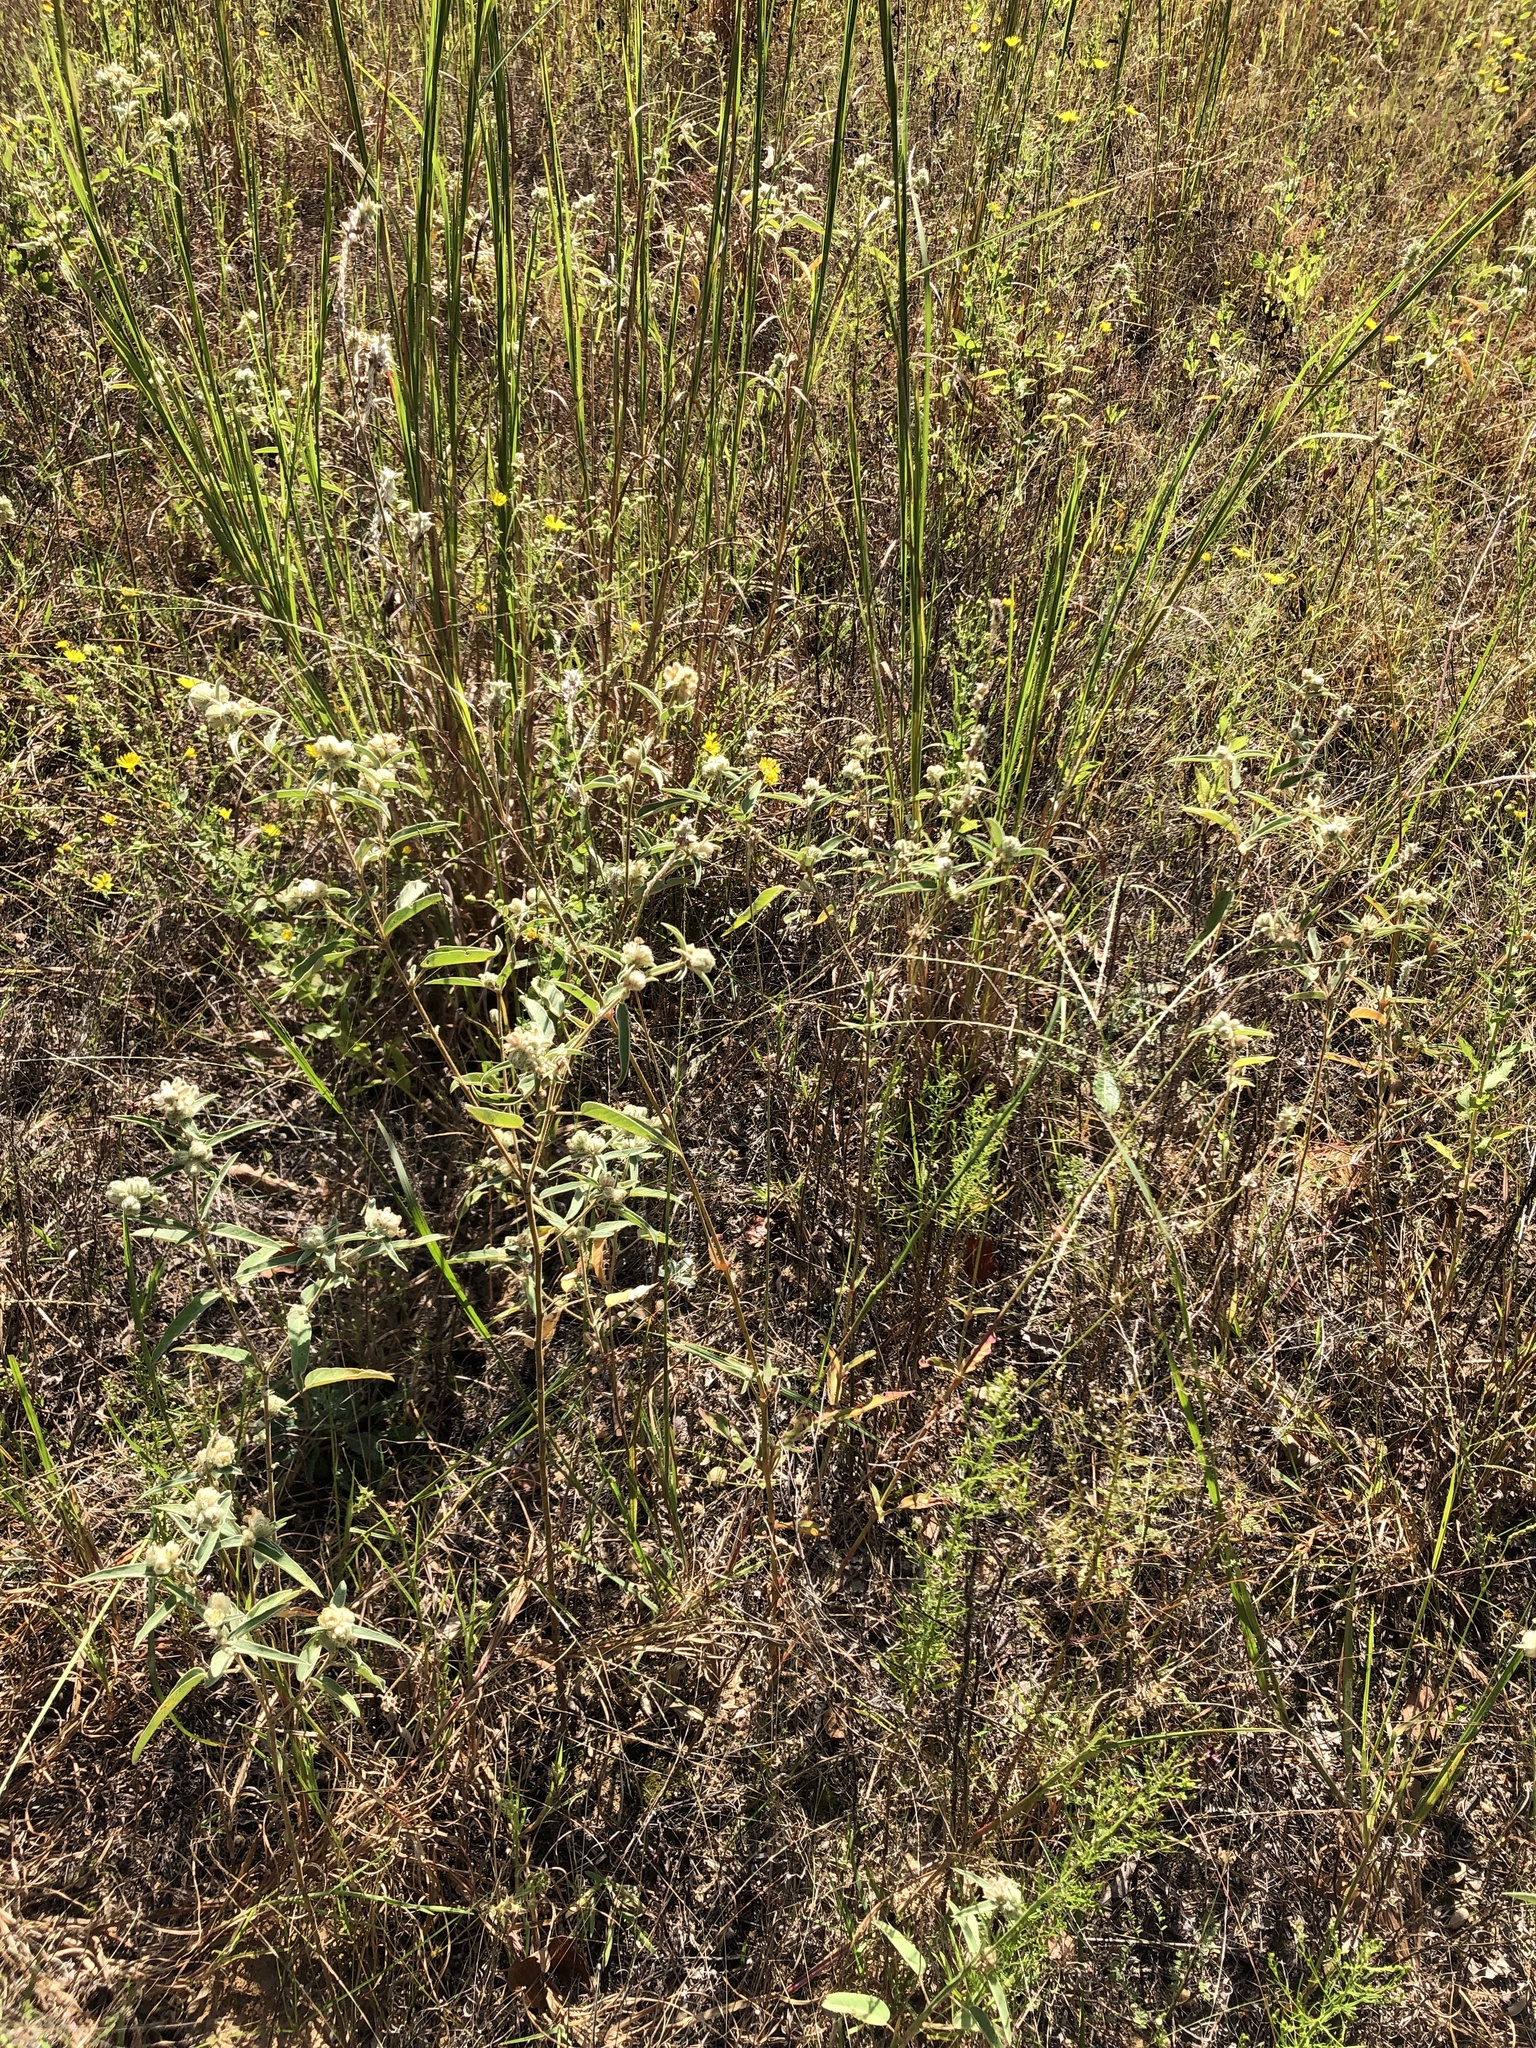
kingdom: Plantae
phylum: Tracheophyta
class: Magnoliopsida
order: Caryophyllales
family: Amaranthaceae
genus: Froelichia
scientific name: Froelichia floridana
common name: Florida snake-cotton
